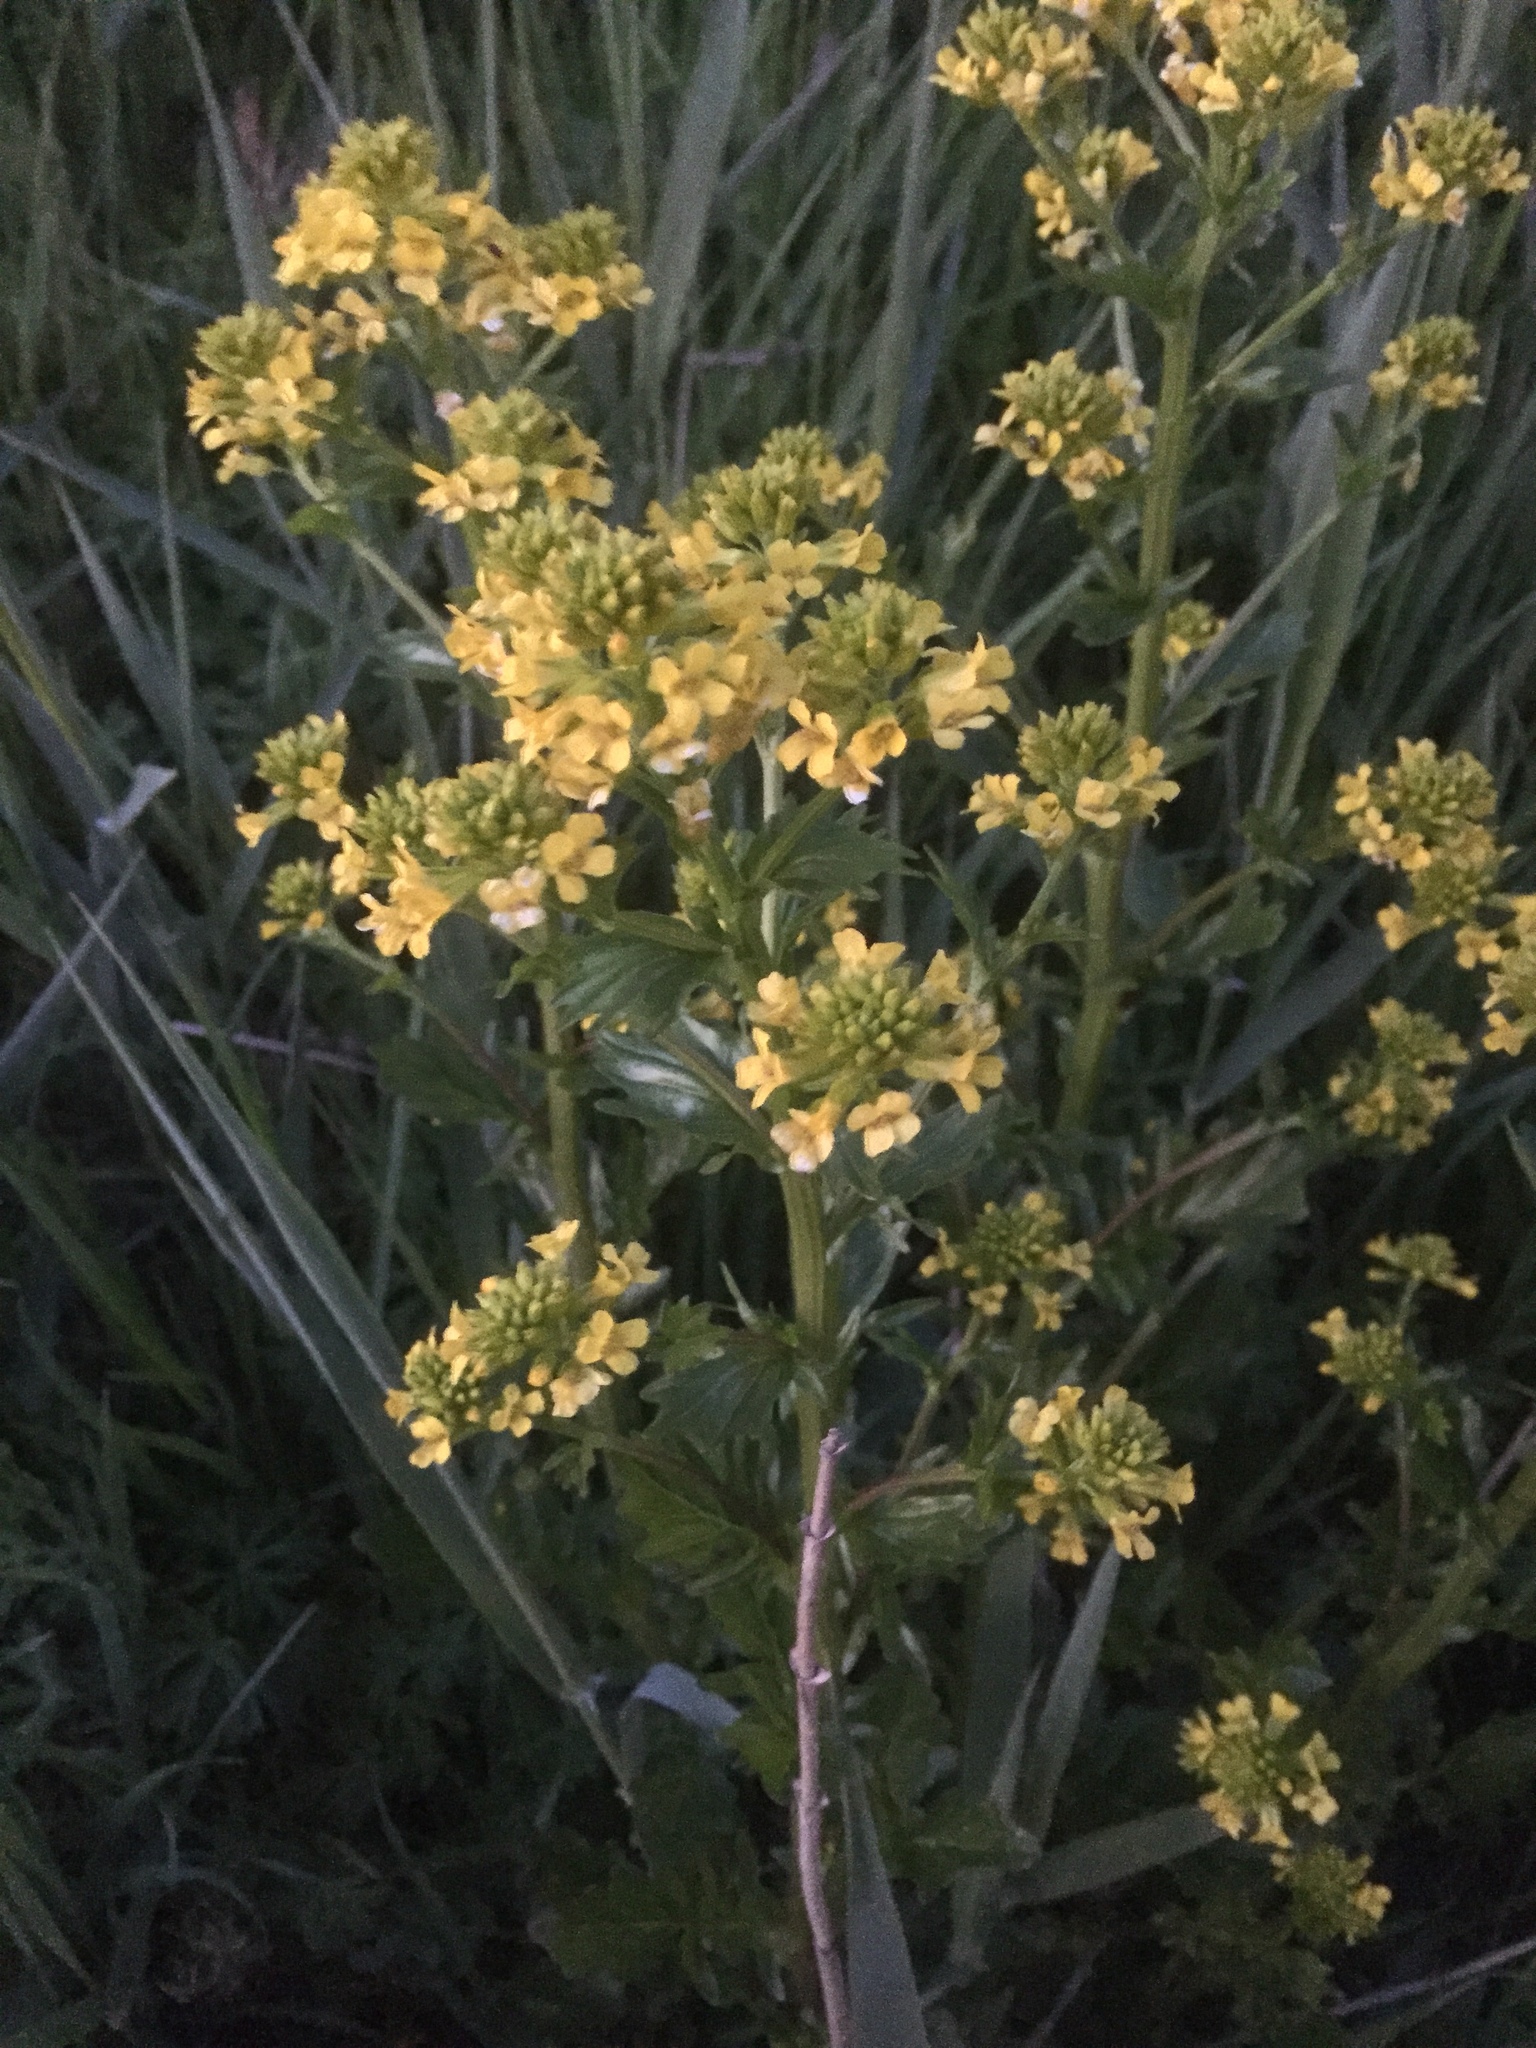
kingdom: Plantae
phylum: Tracheophyta
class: Magnoliopsida
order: Brassicales
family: Brassicaceae
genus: Barbarea
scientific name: Barbarea vulgaris
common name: Cressy-greens
